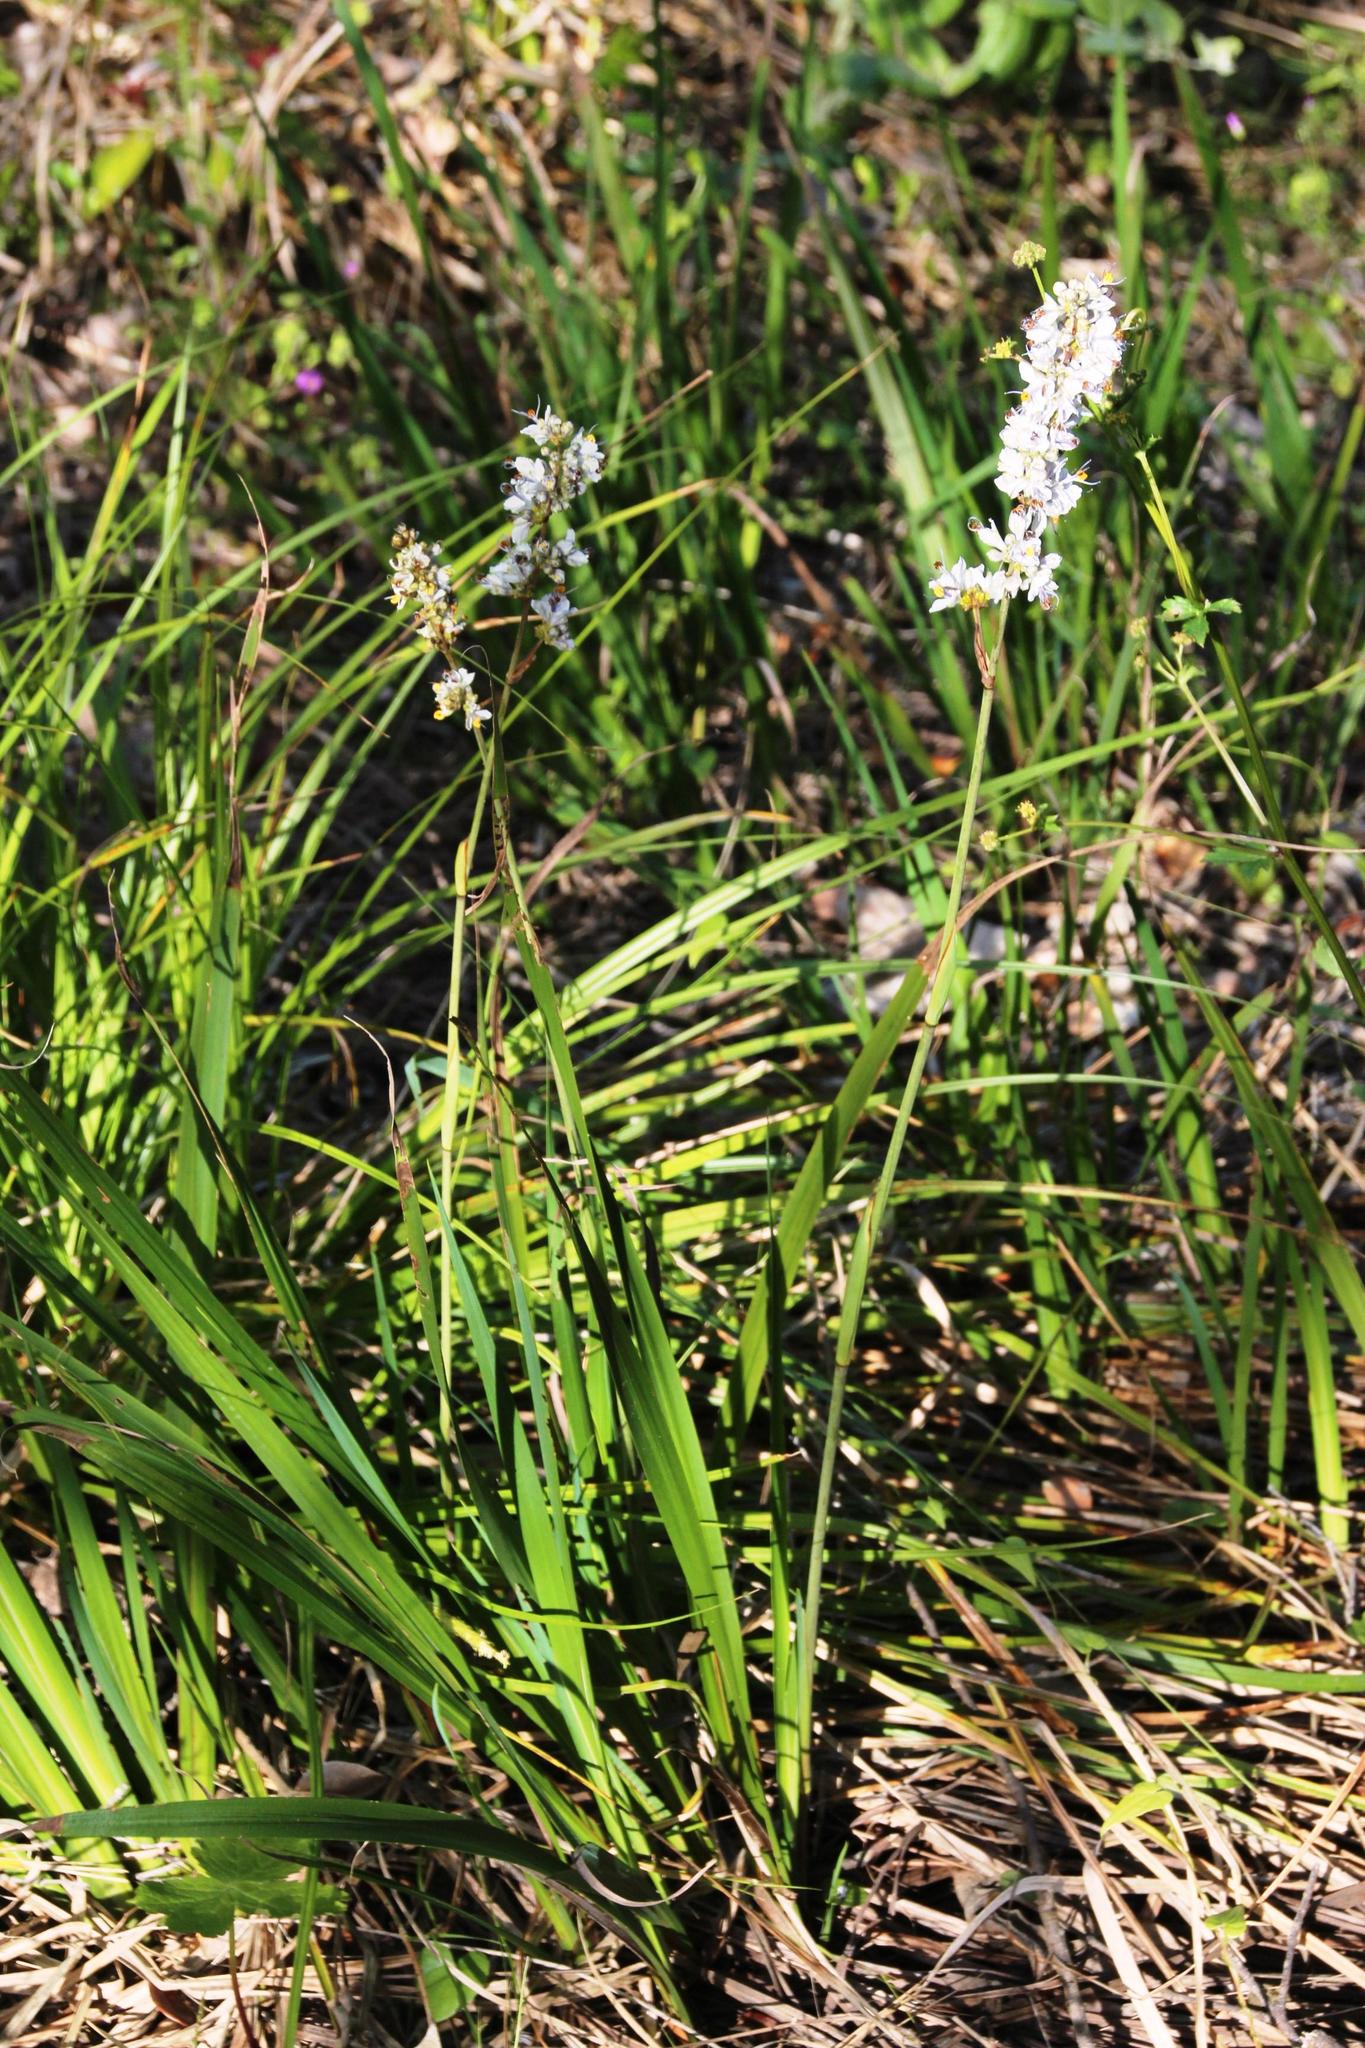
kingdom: Plantae
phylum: Tracheophyta
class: Liliopsida
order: Asparagales
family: Iridaceae
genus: Libertia
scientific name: Libertia sessiliflora
